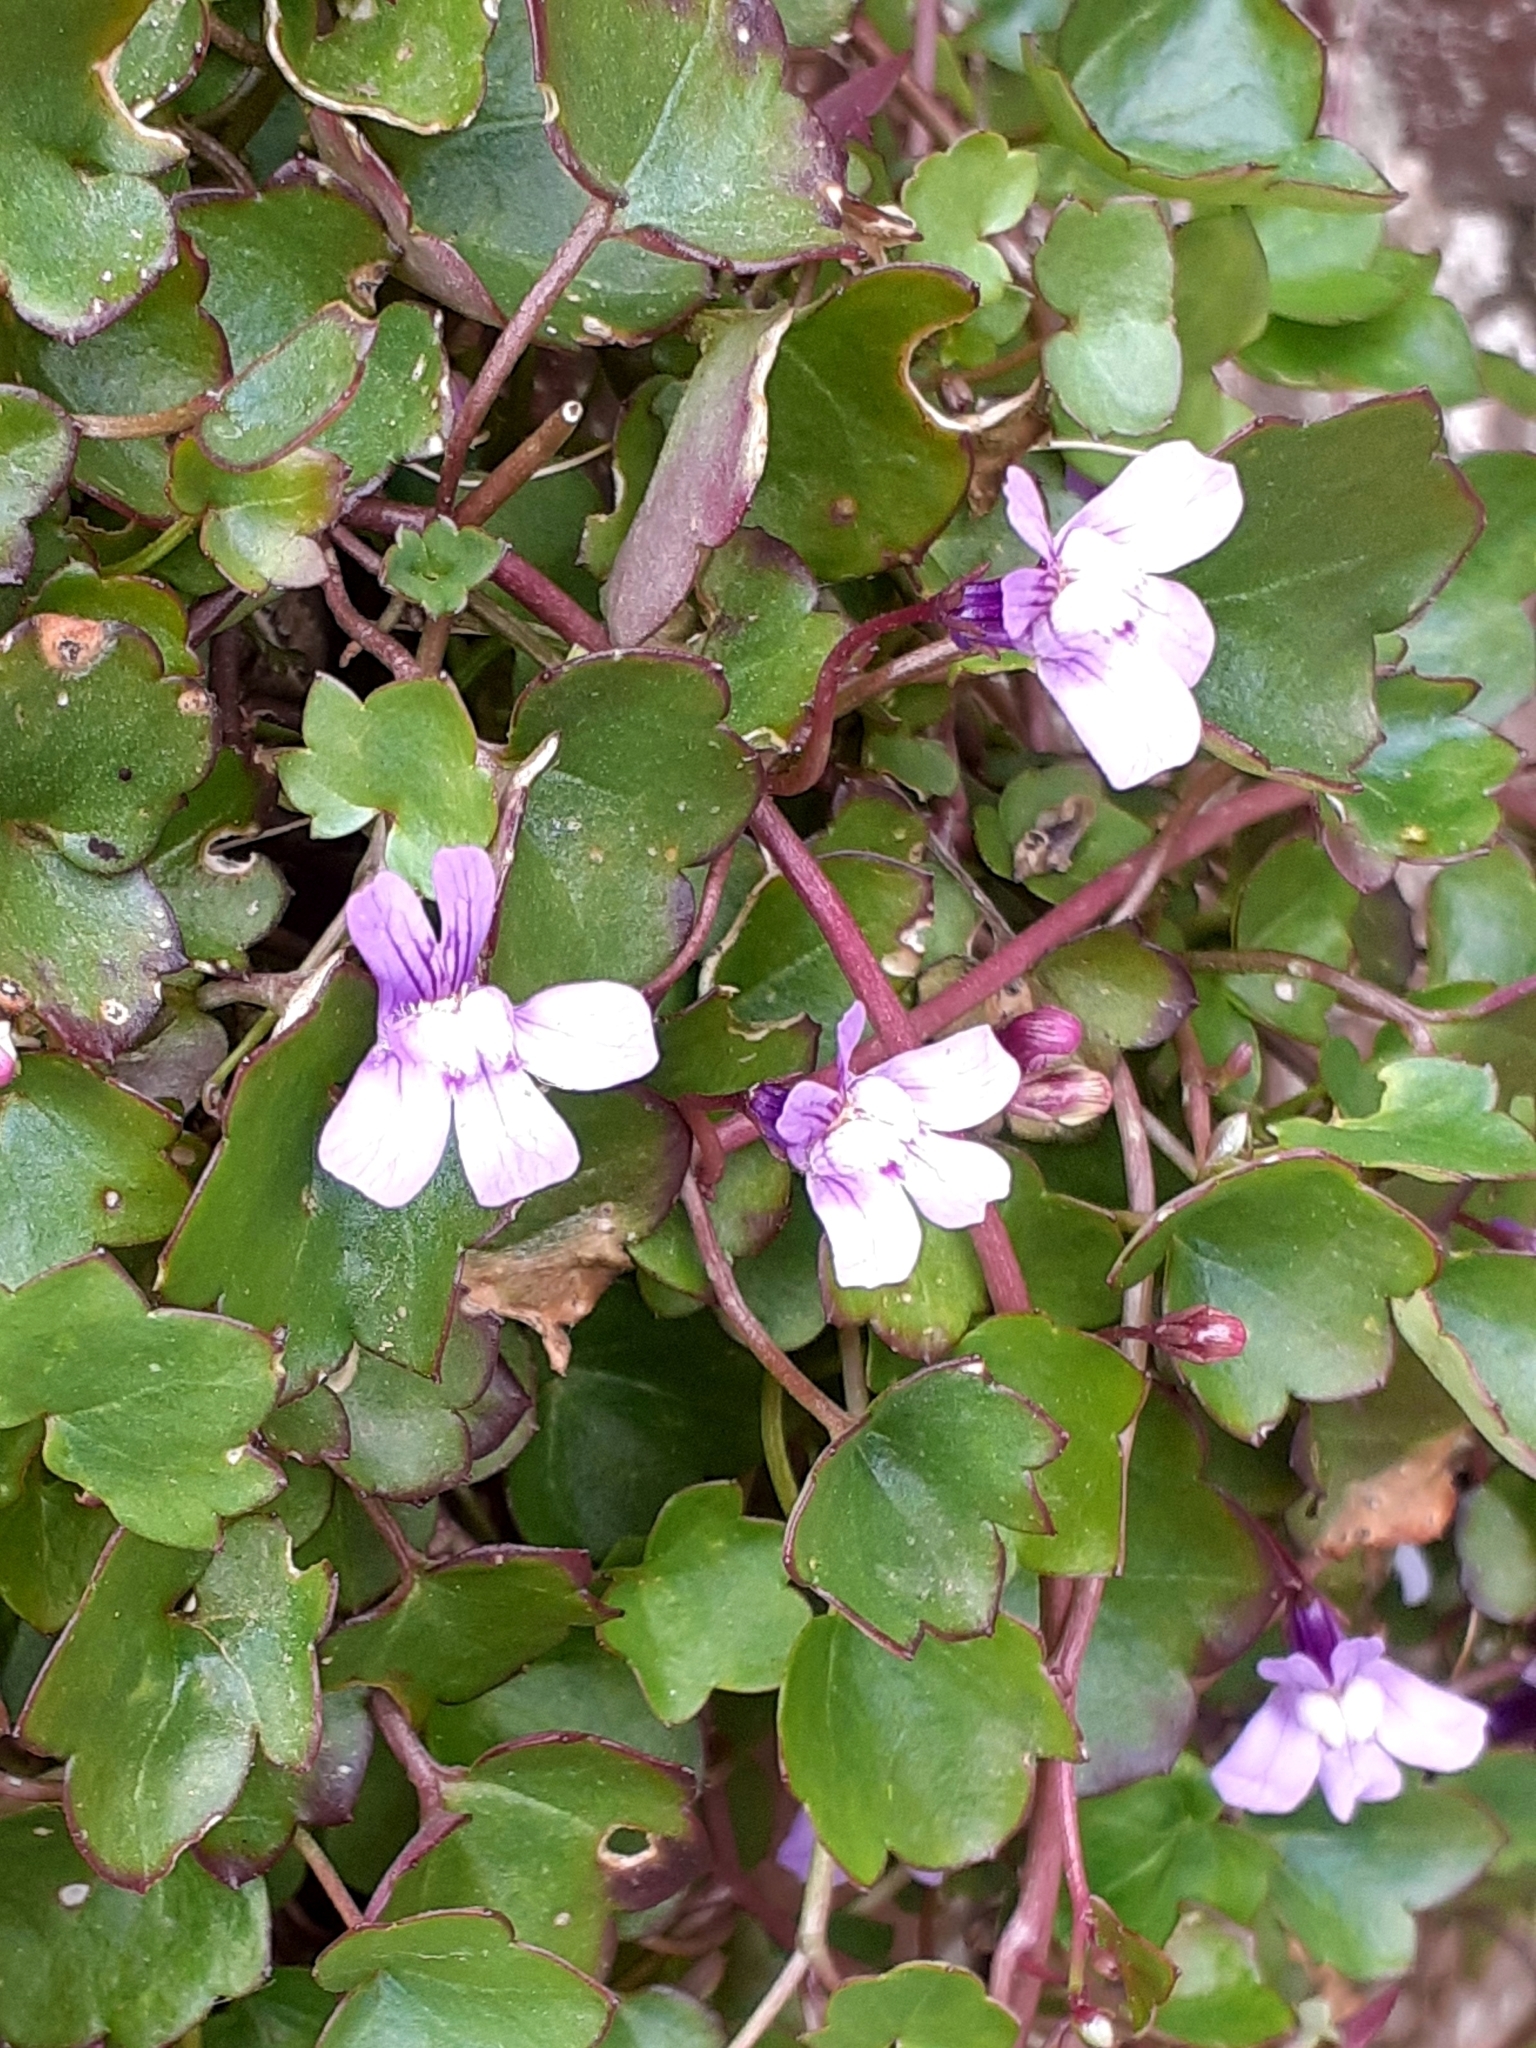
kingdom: Plantae
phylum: Tracheophyta
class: Magnoliopsida
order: Lamiales
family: Plantaginaceae
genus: Cymbalaria
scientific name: Cymbalaria muralis
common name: Ivy-leaved toadflax
